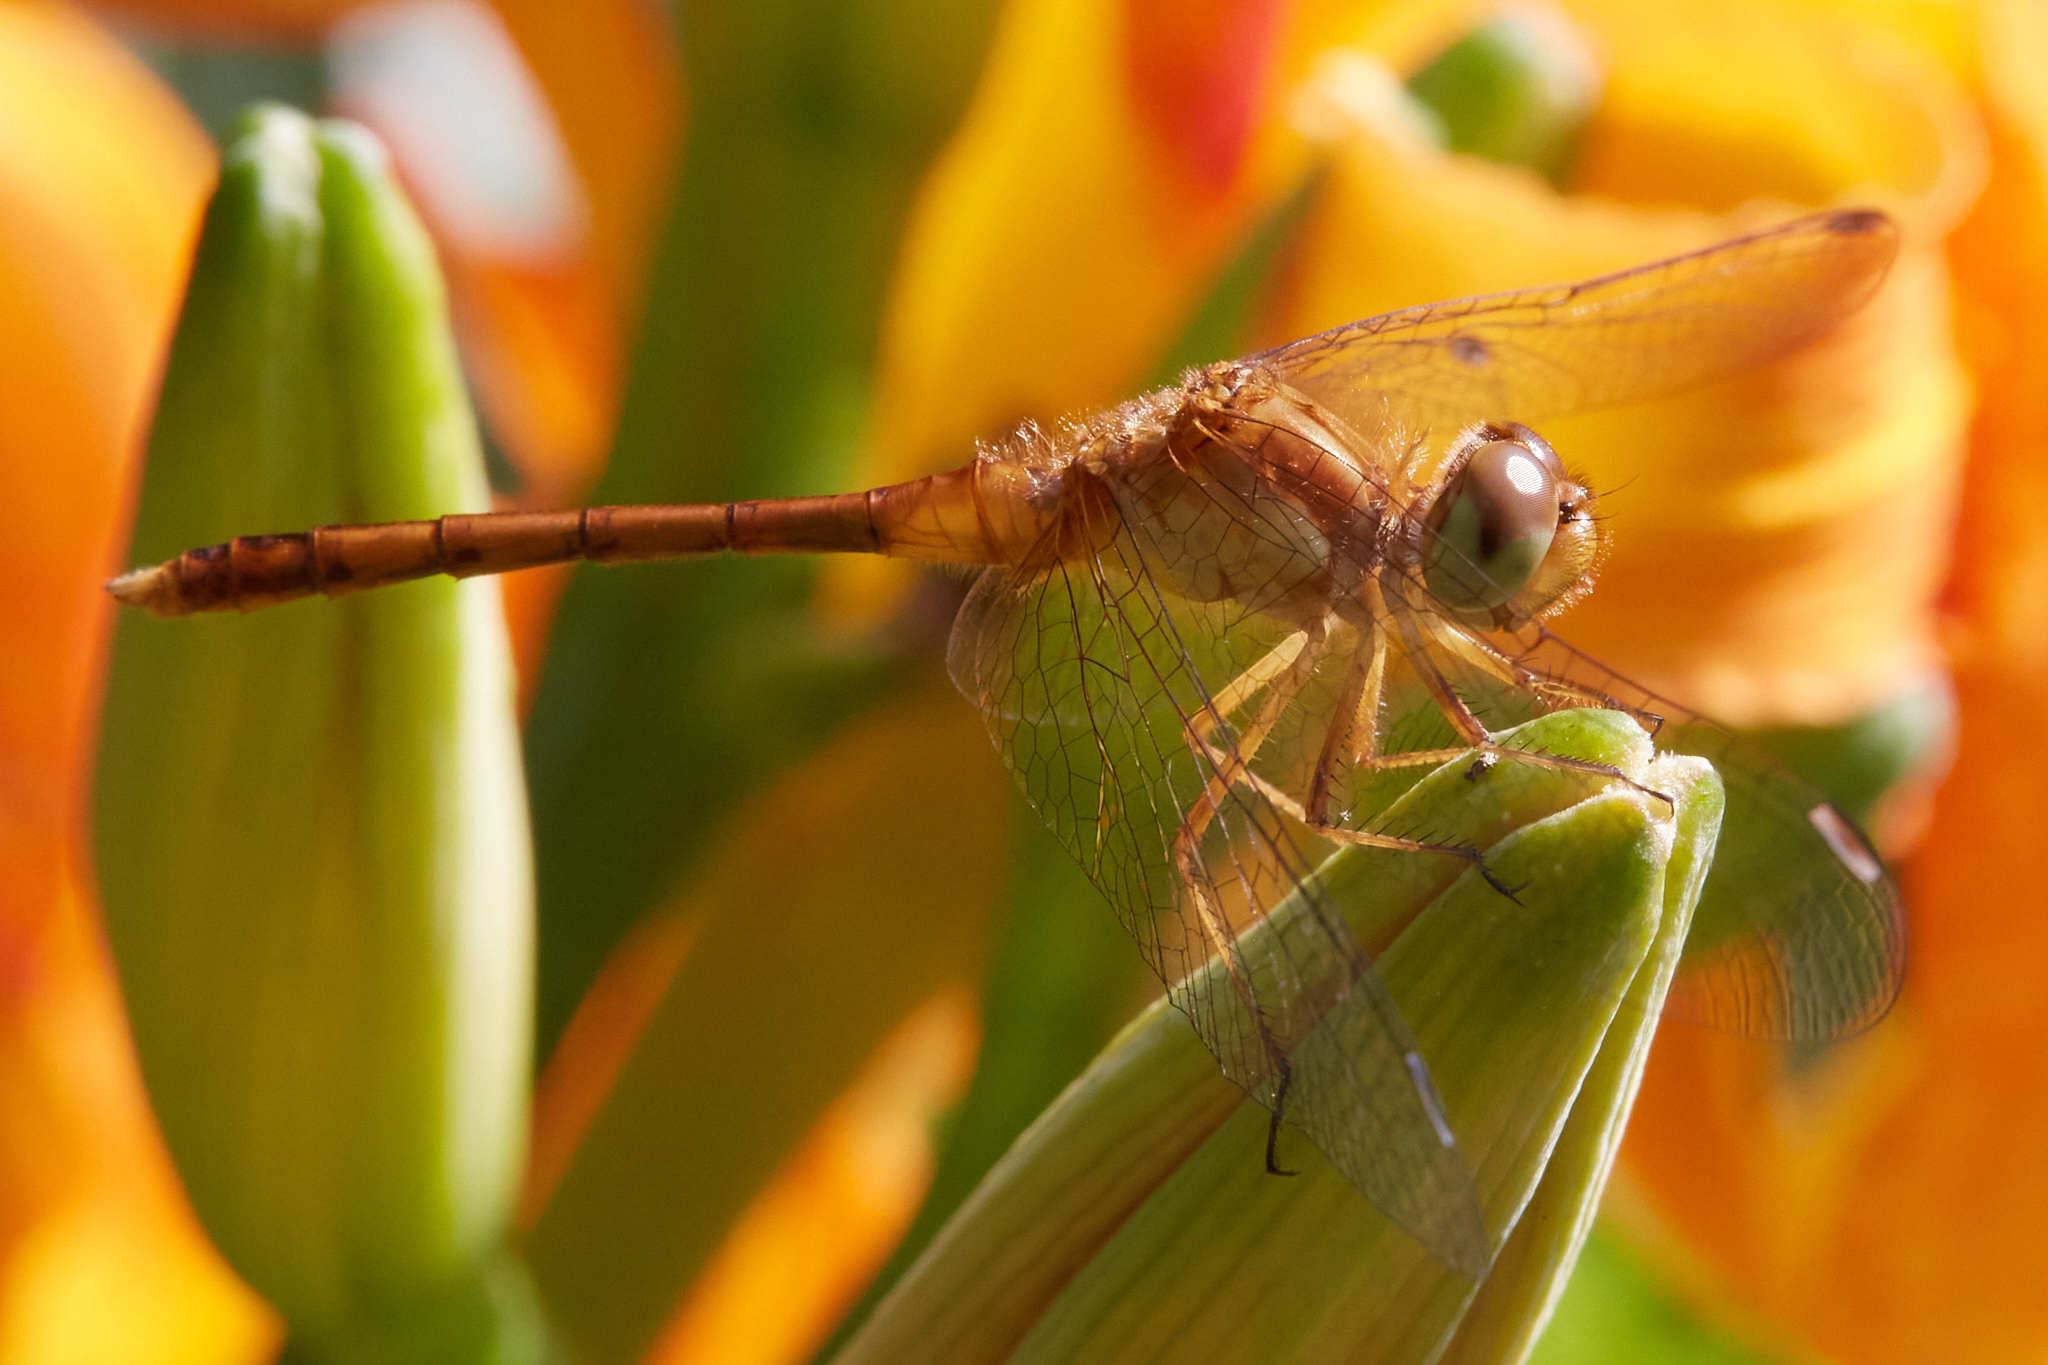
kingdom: Animalia
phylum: Arthropoda
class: Insecta
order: Odonata
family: Libellulidae
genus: Sympetrum
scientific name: Sympetrum vicinum
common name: Autumn meadowhawk
